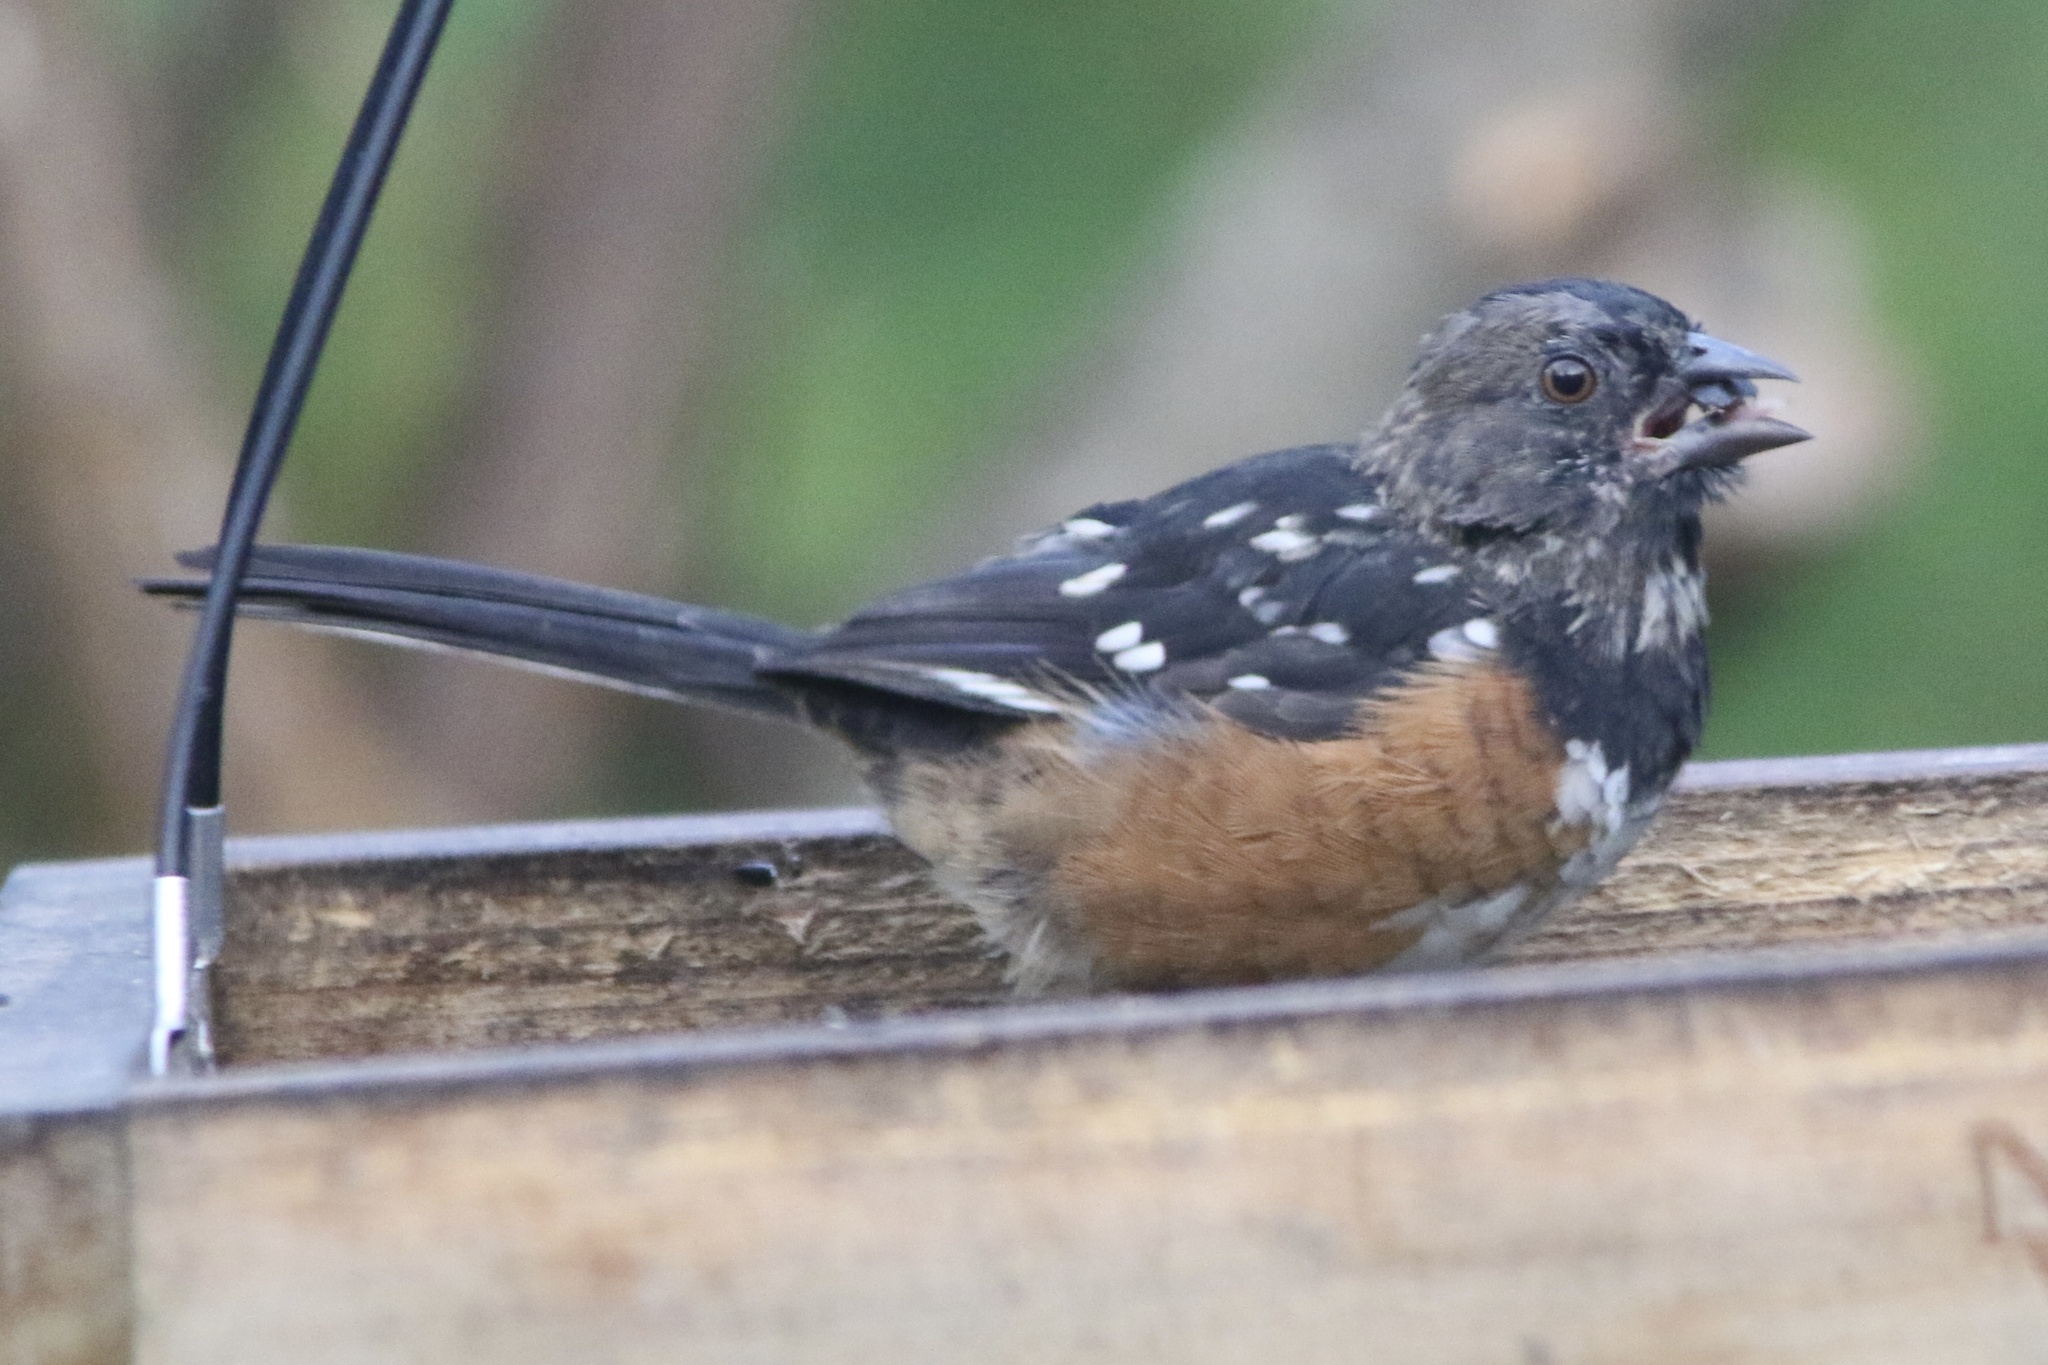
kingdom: Animalia
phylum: Chordata
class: Aves
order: Passeriformes
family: Passerellidae
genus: Pipilo
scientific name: Pipilo maculatus
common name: Spotted towhee
